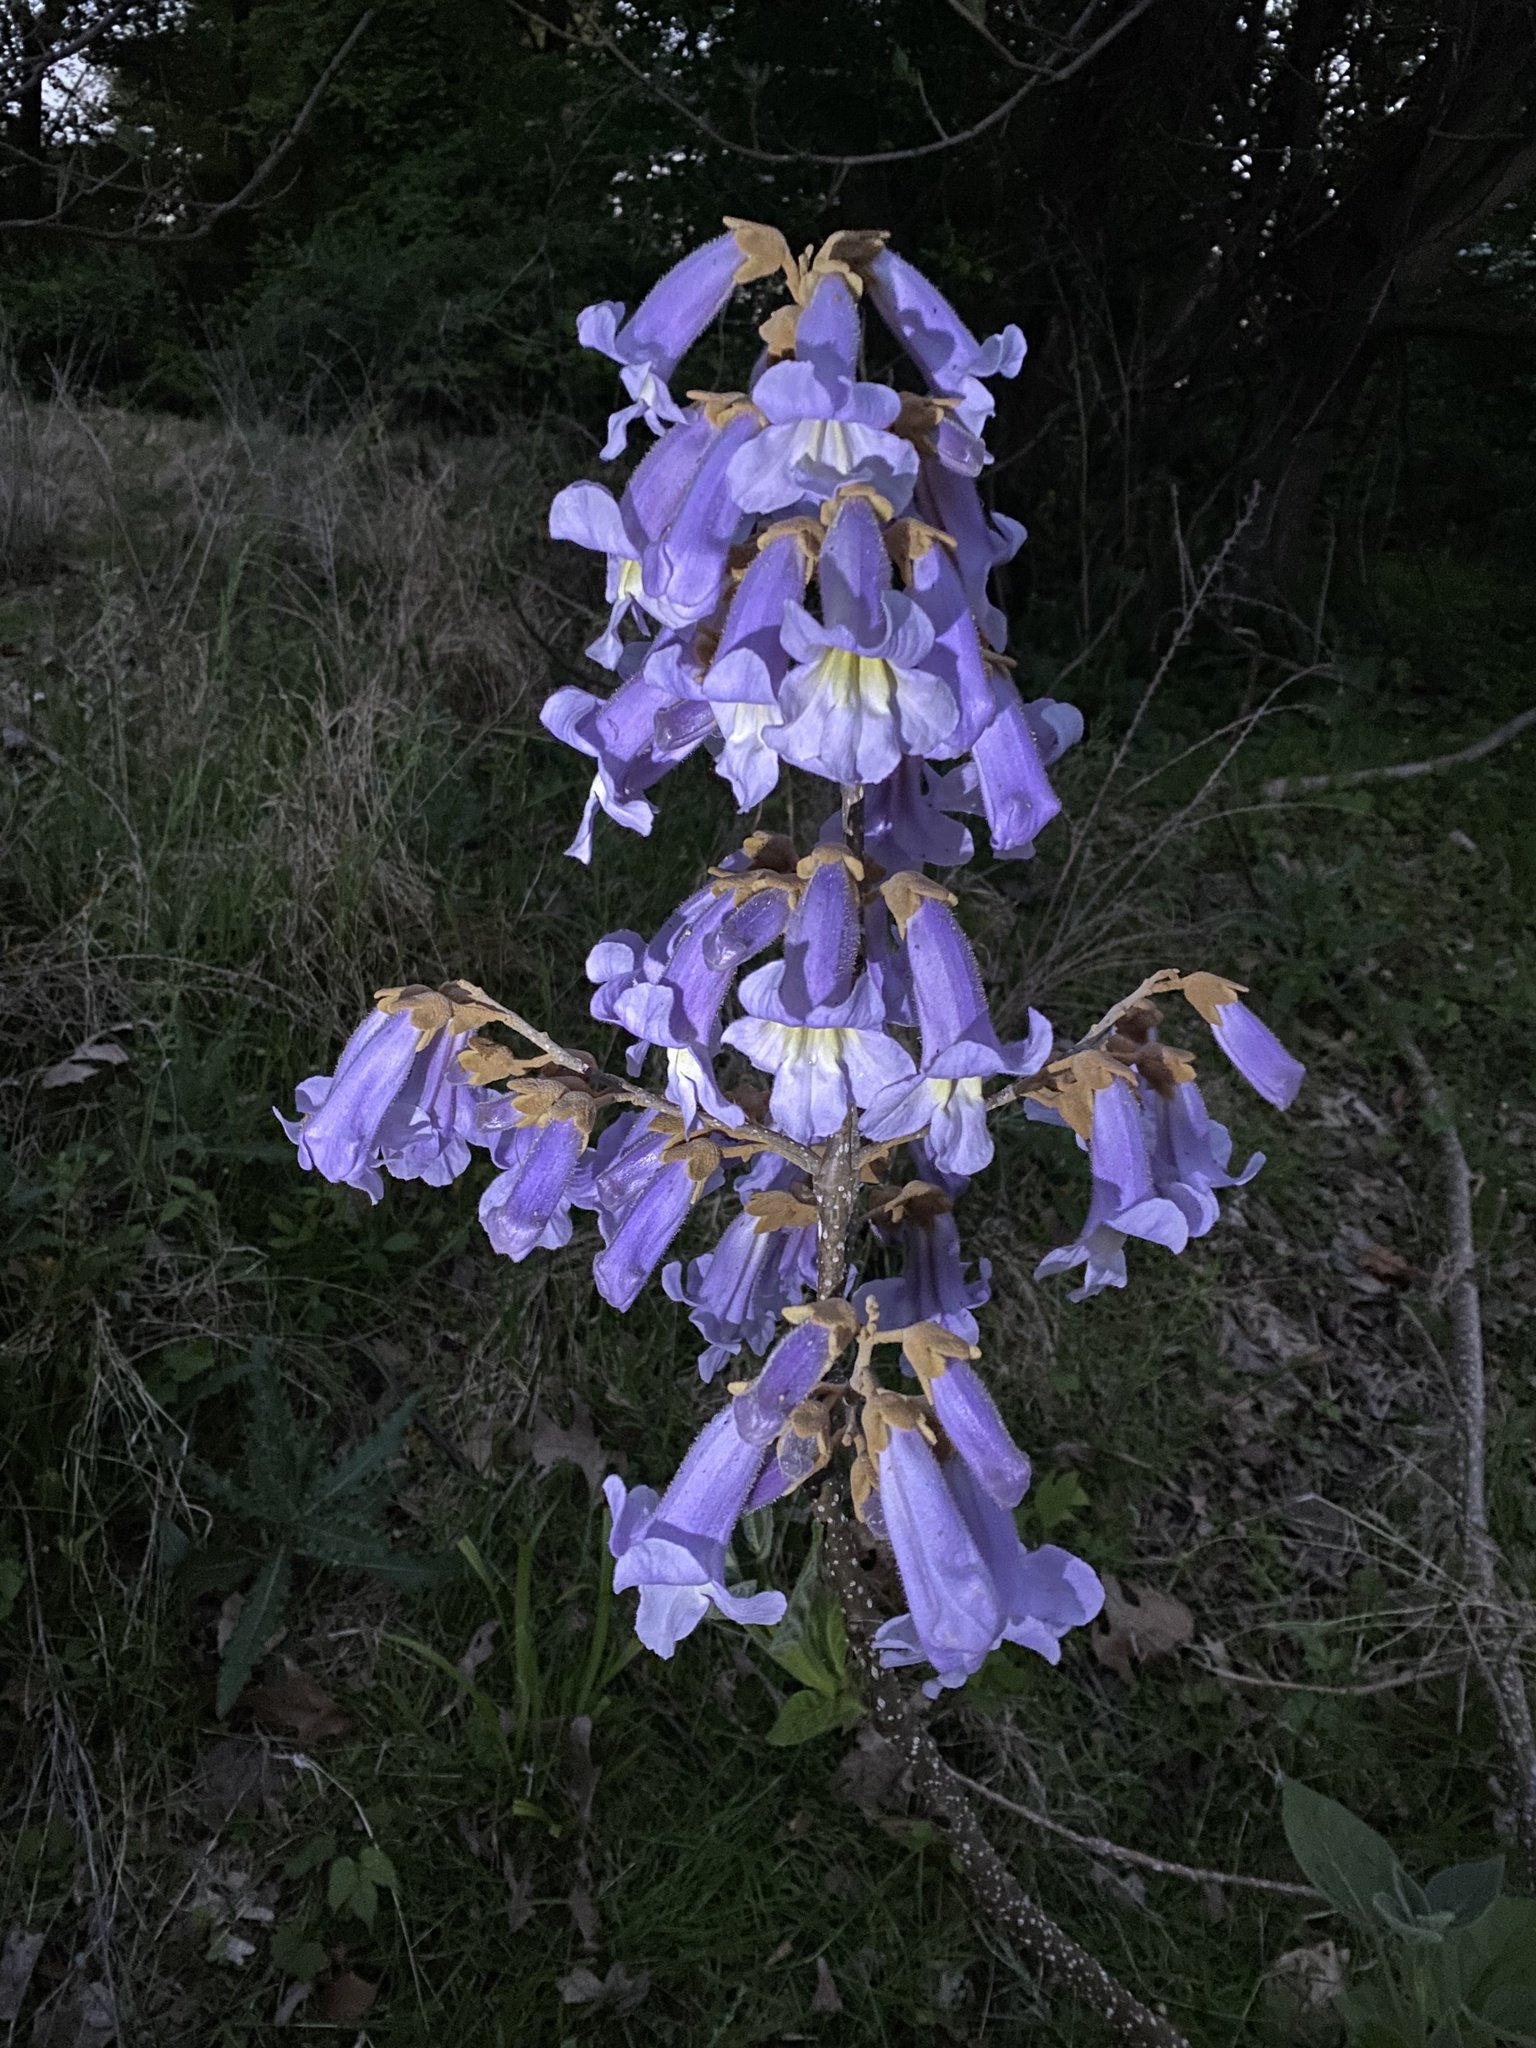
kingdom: Plantae
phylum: Tracheophyta
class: Magnoliopsida
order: Lamiales
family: Paulowniaceae
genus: Paulownia
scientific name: Paulownia tomentosa
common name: Foxglove-tree
